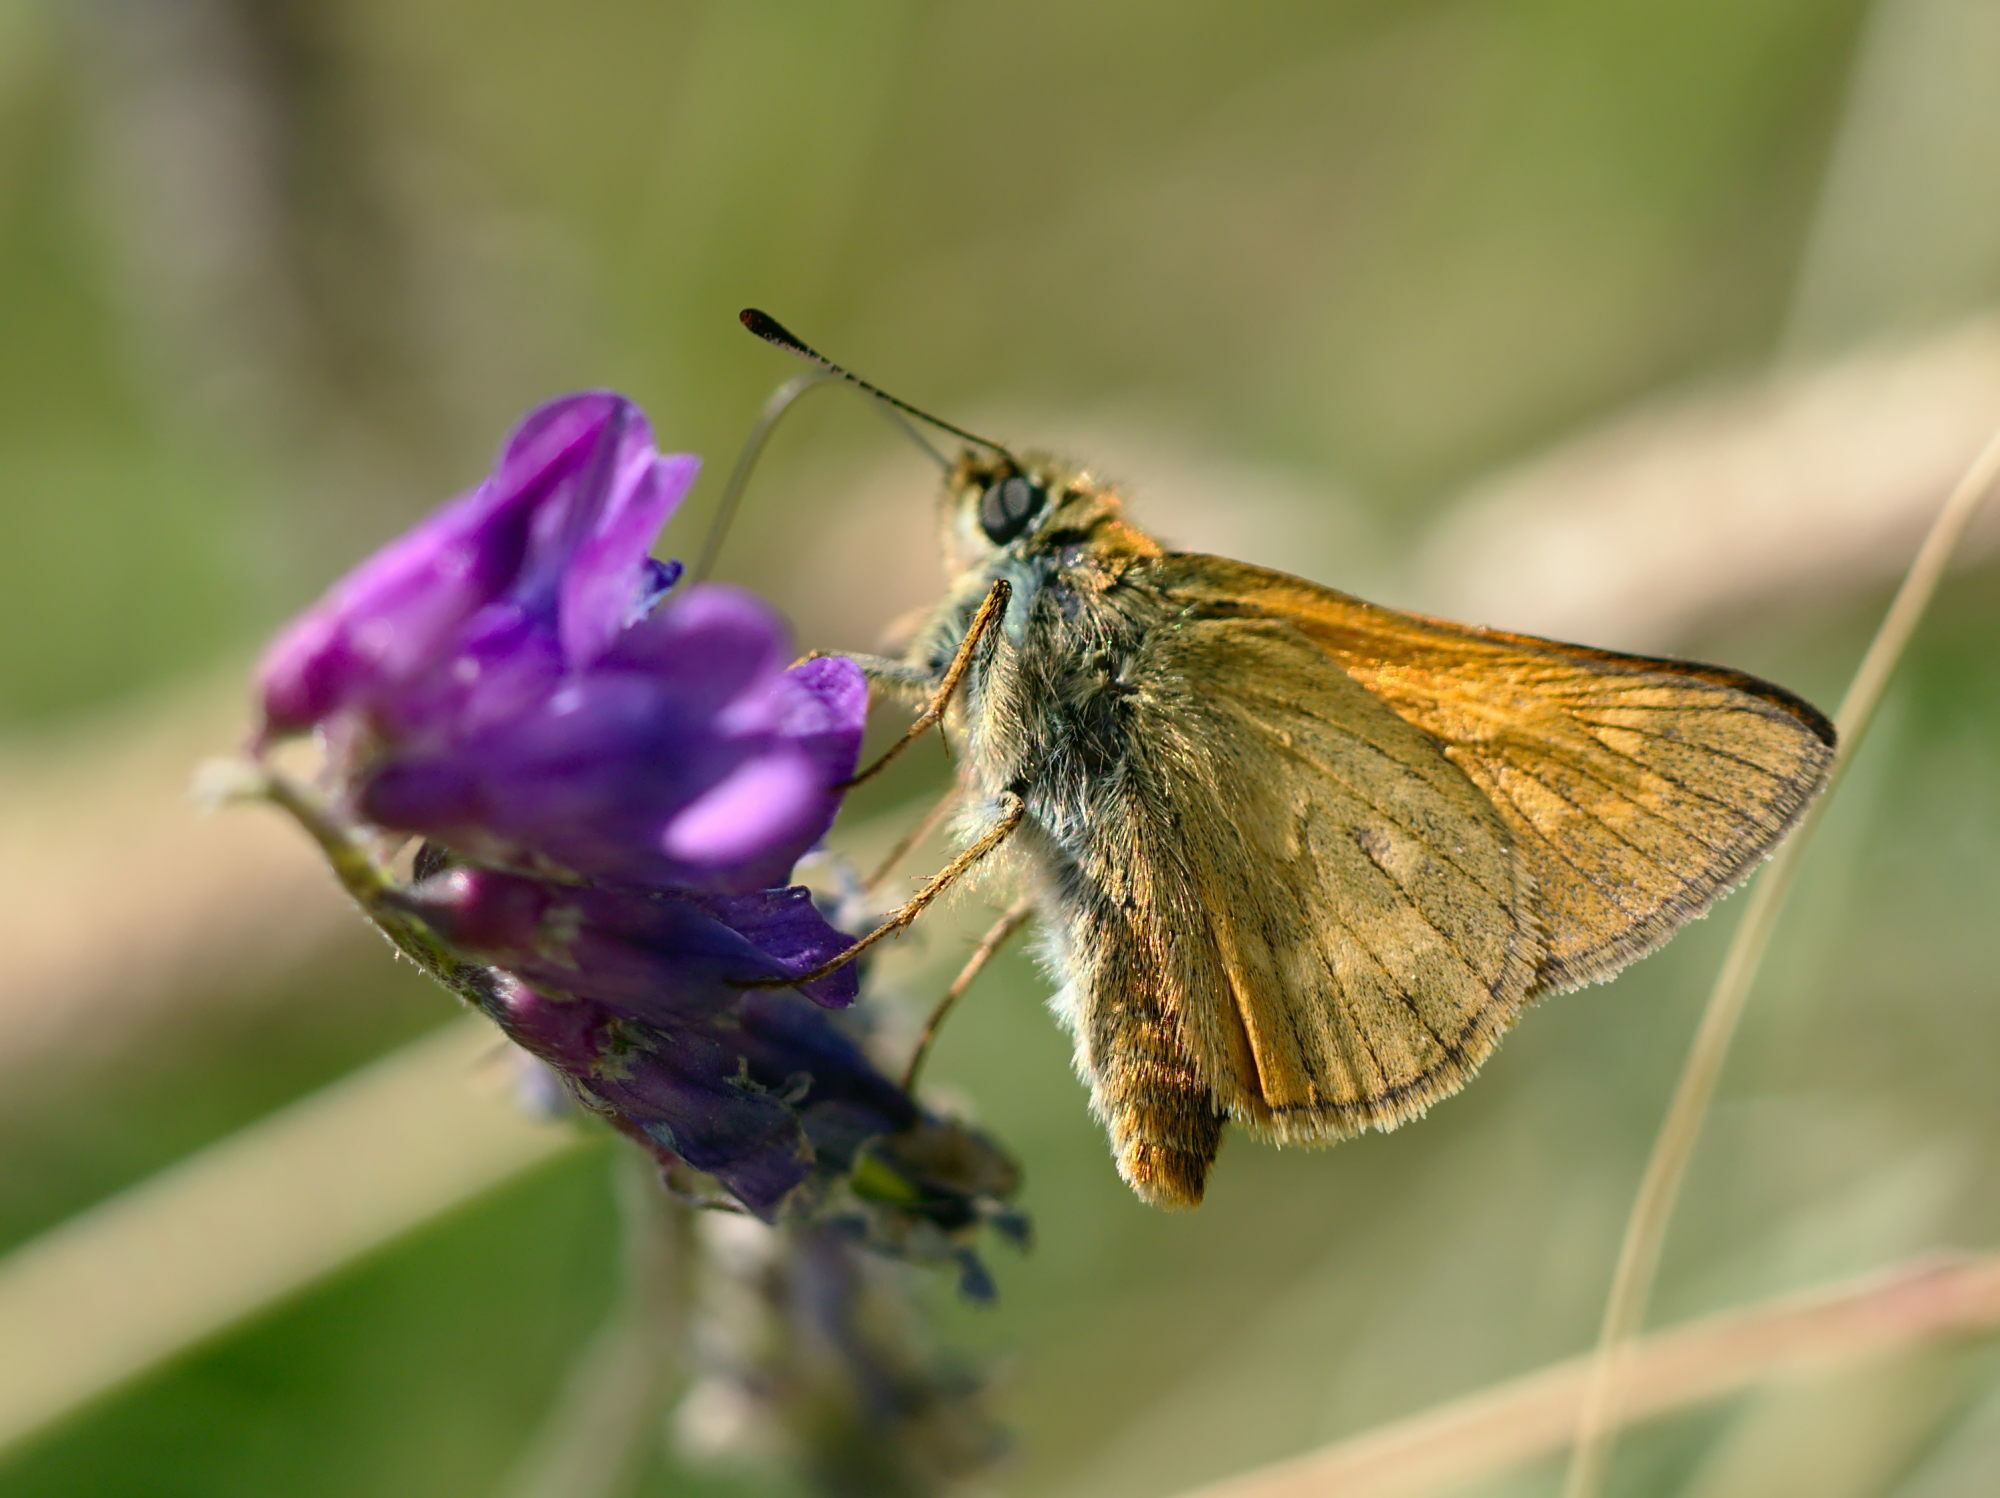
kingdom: Animalia
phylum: Arthropoda
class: Insecta
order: Lepidoptera
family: Hesperiidae
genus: Ochlodes
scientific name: Ochlodes venata
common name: Large skipper
